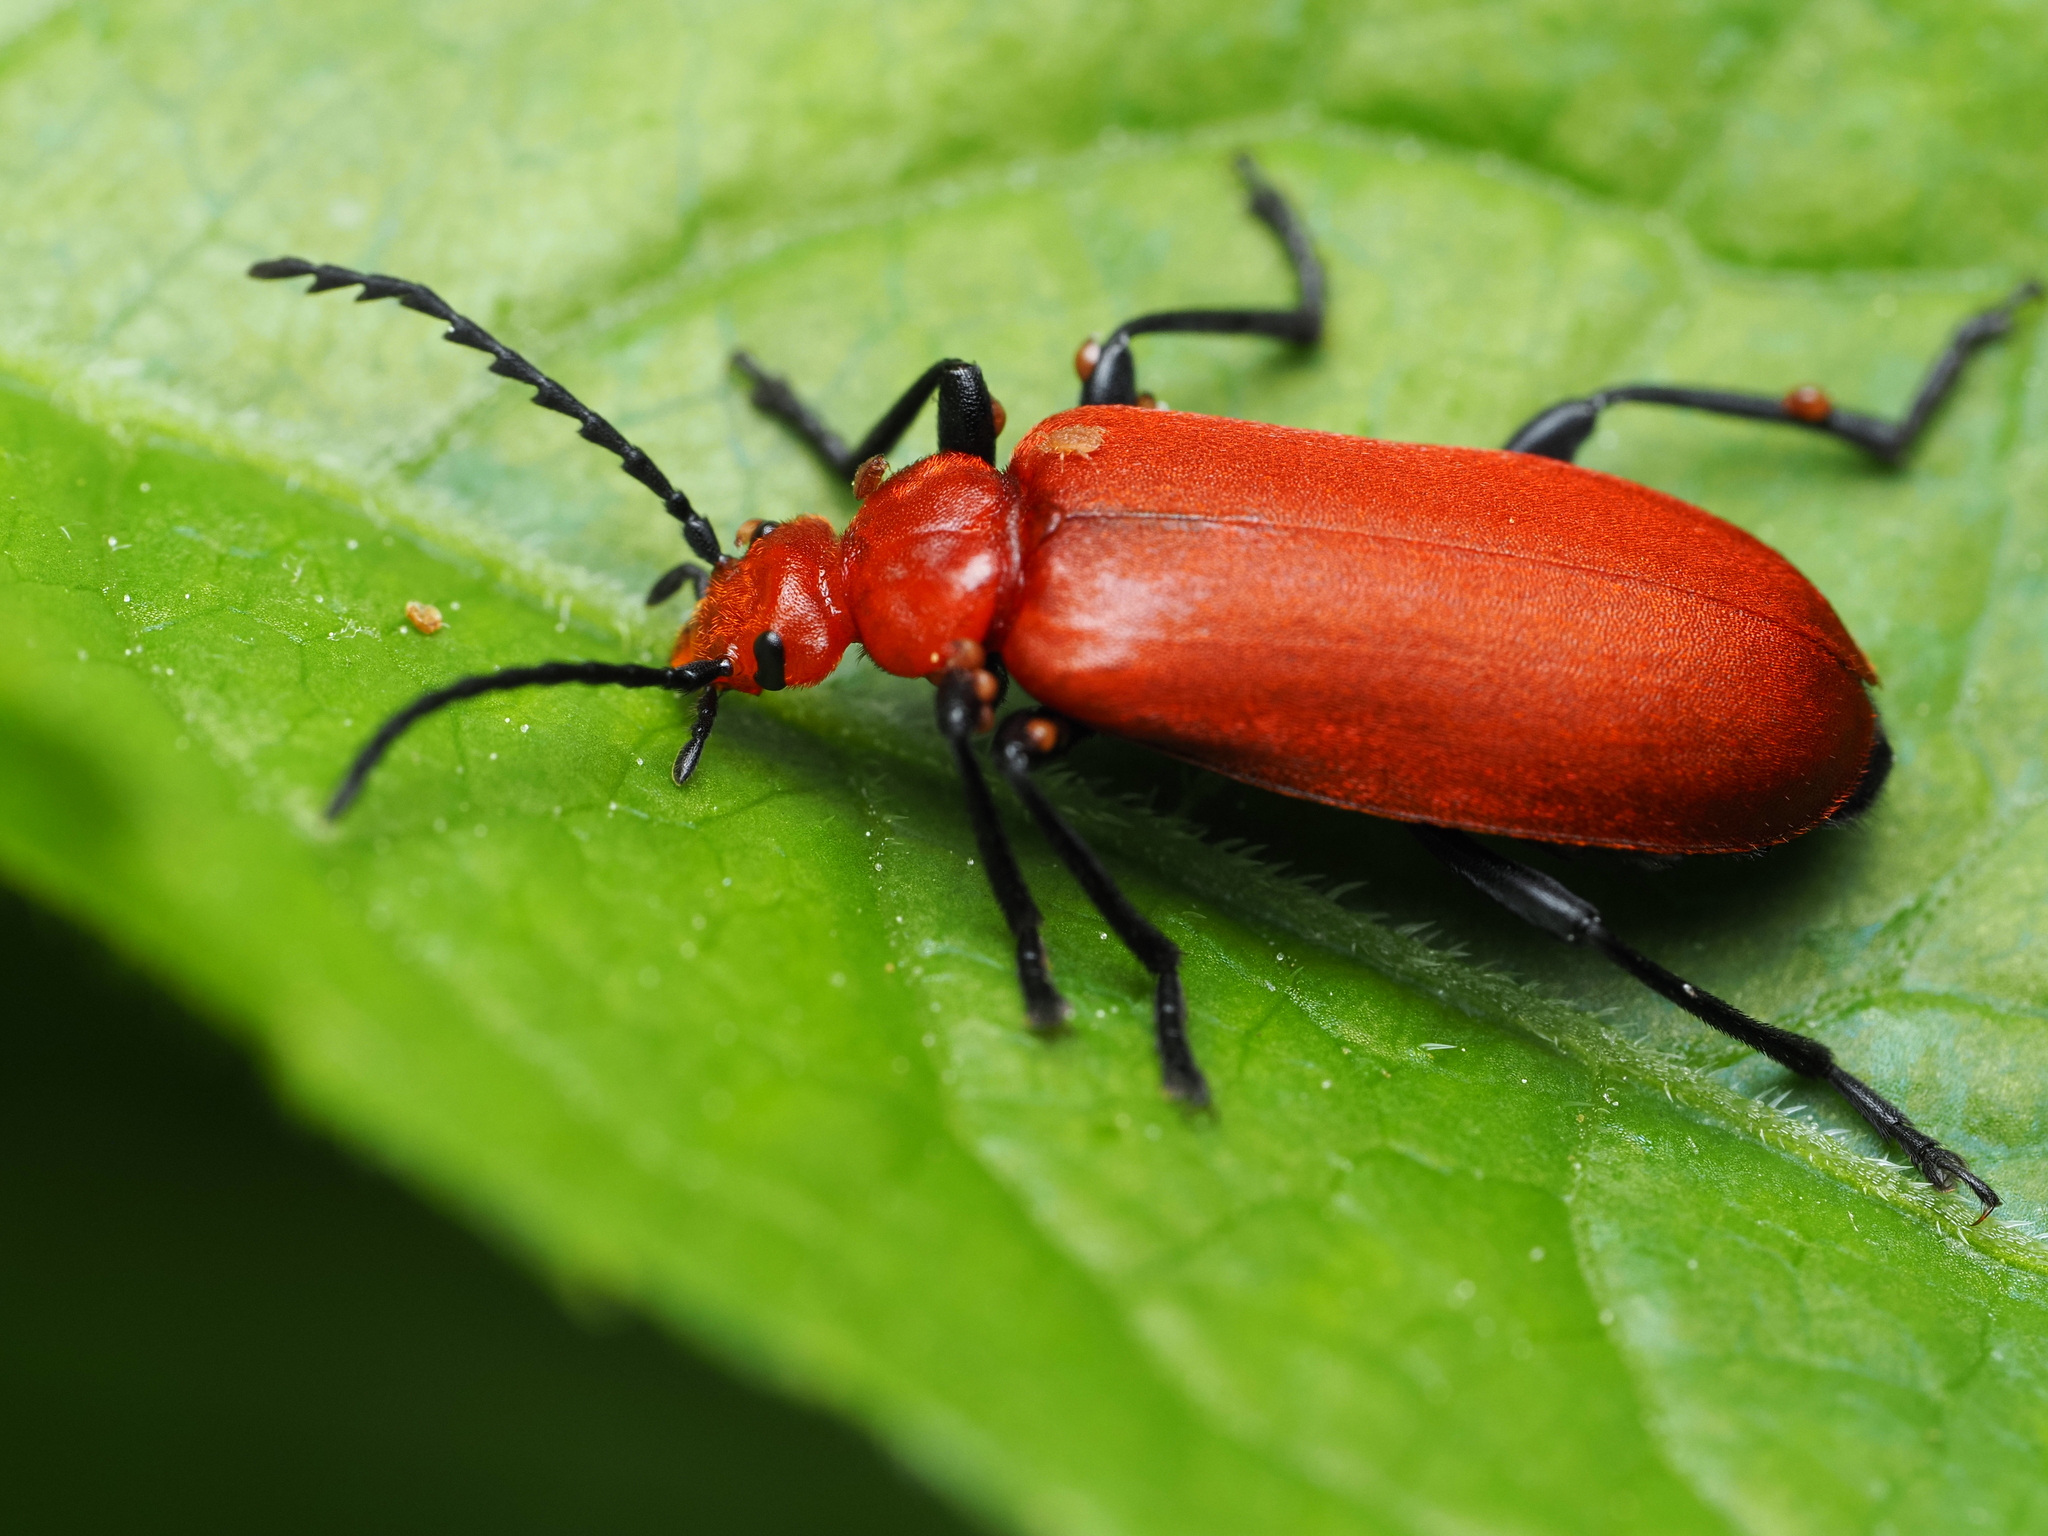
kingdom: Animalia
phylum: Arthropoda
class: Insecta
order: Coleoptera
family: Pyrochroidae
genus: Pyrochroa
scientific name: Pyrochroa serraticornis
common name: Red-headed cardinal beetle
